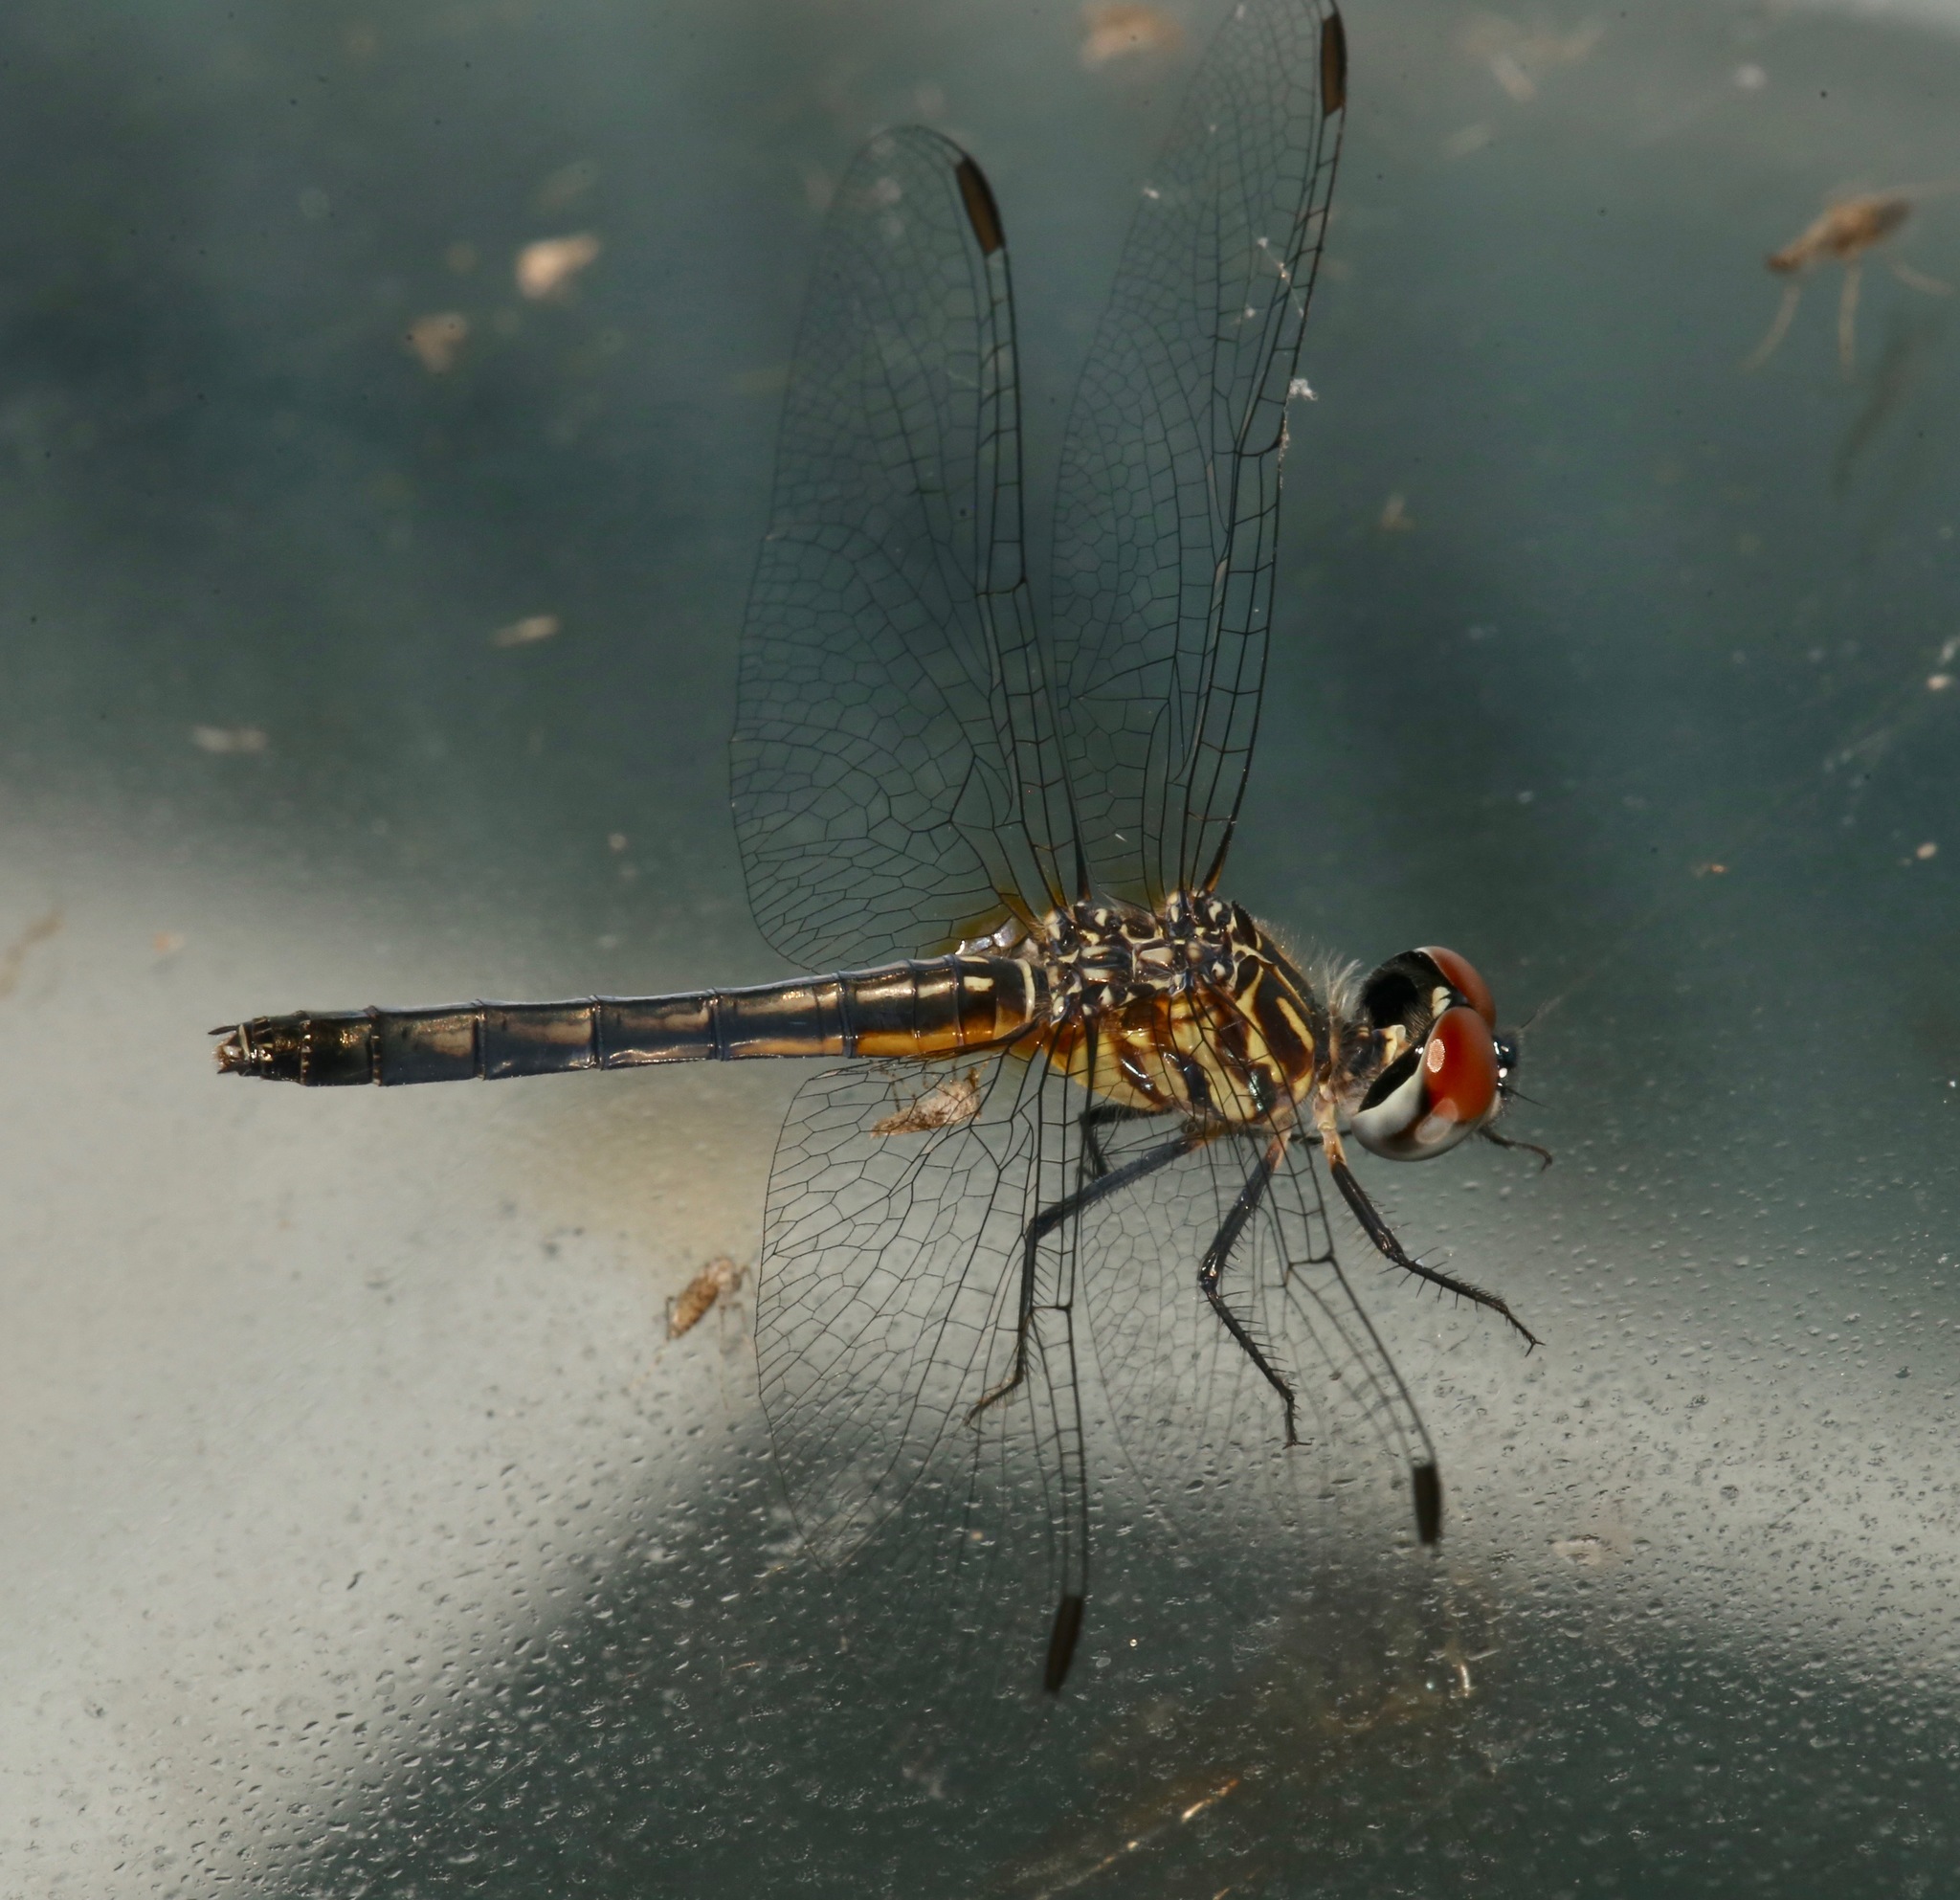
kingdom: Animalia
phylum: Arthropoda
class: Insecta
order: Odonata
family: Libellulidae
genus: Pachydiplax
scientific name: Pachydiplax longipennis
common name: Blue dasher
